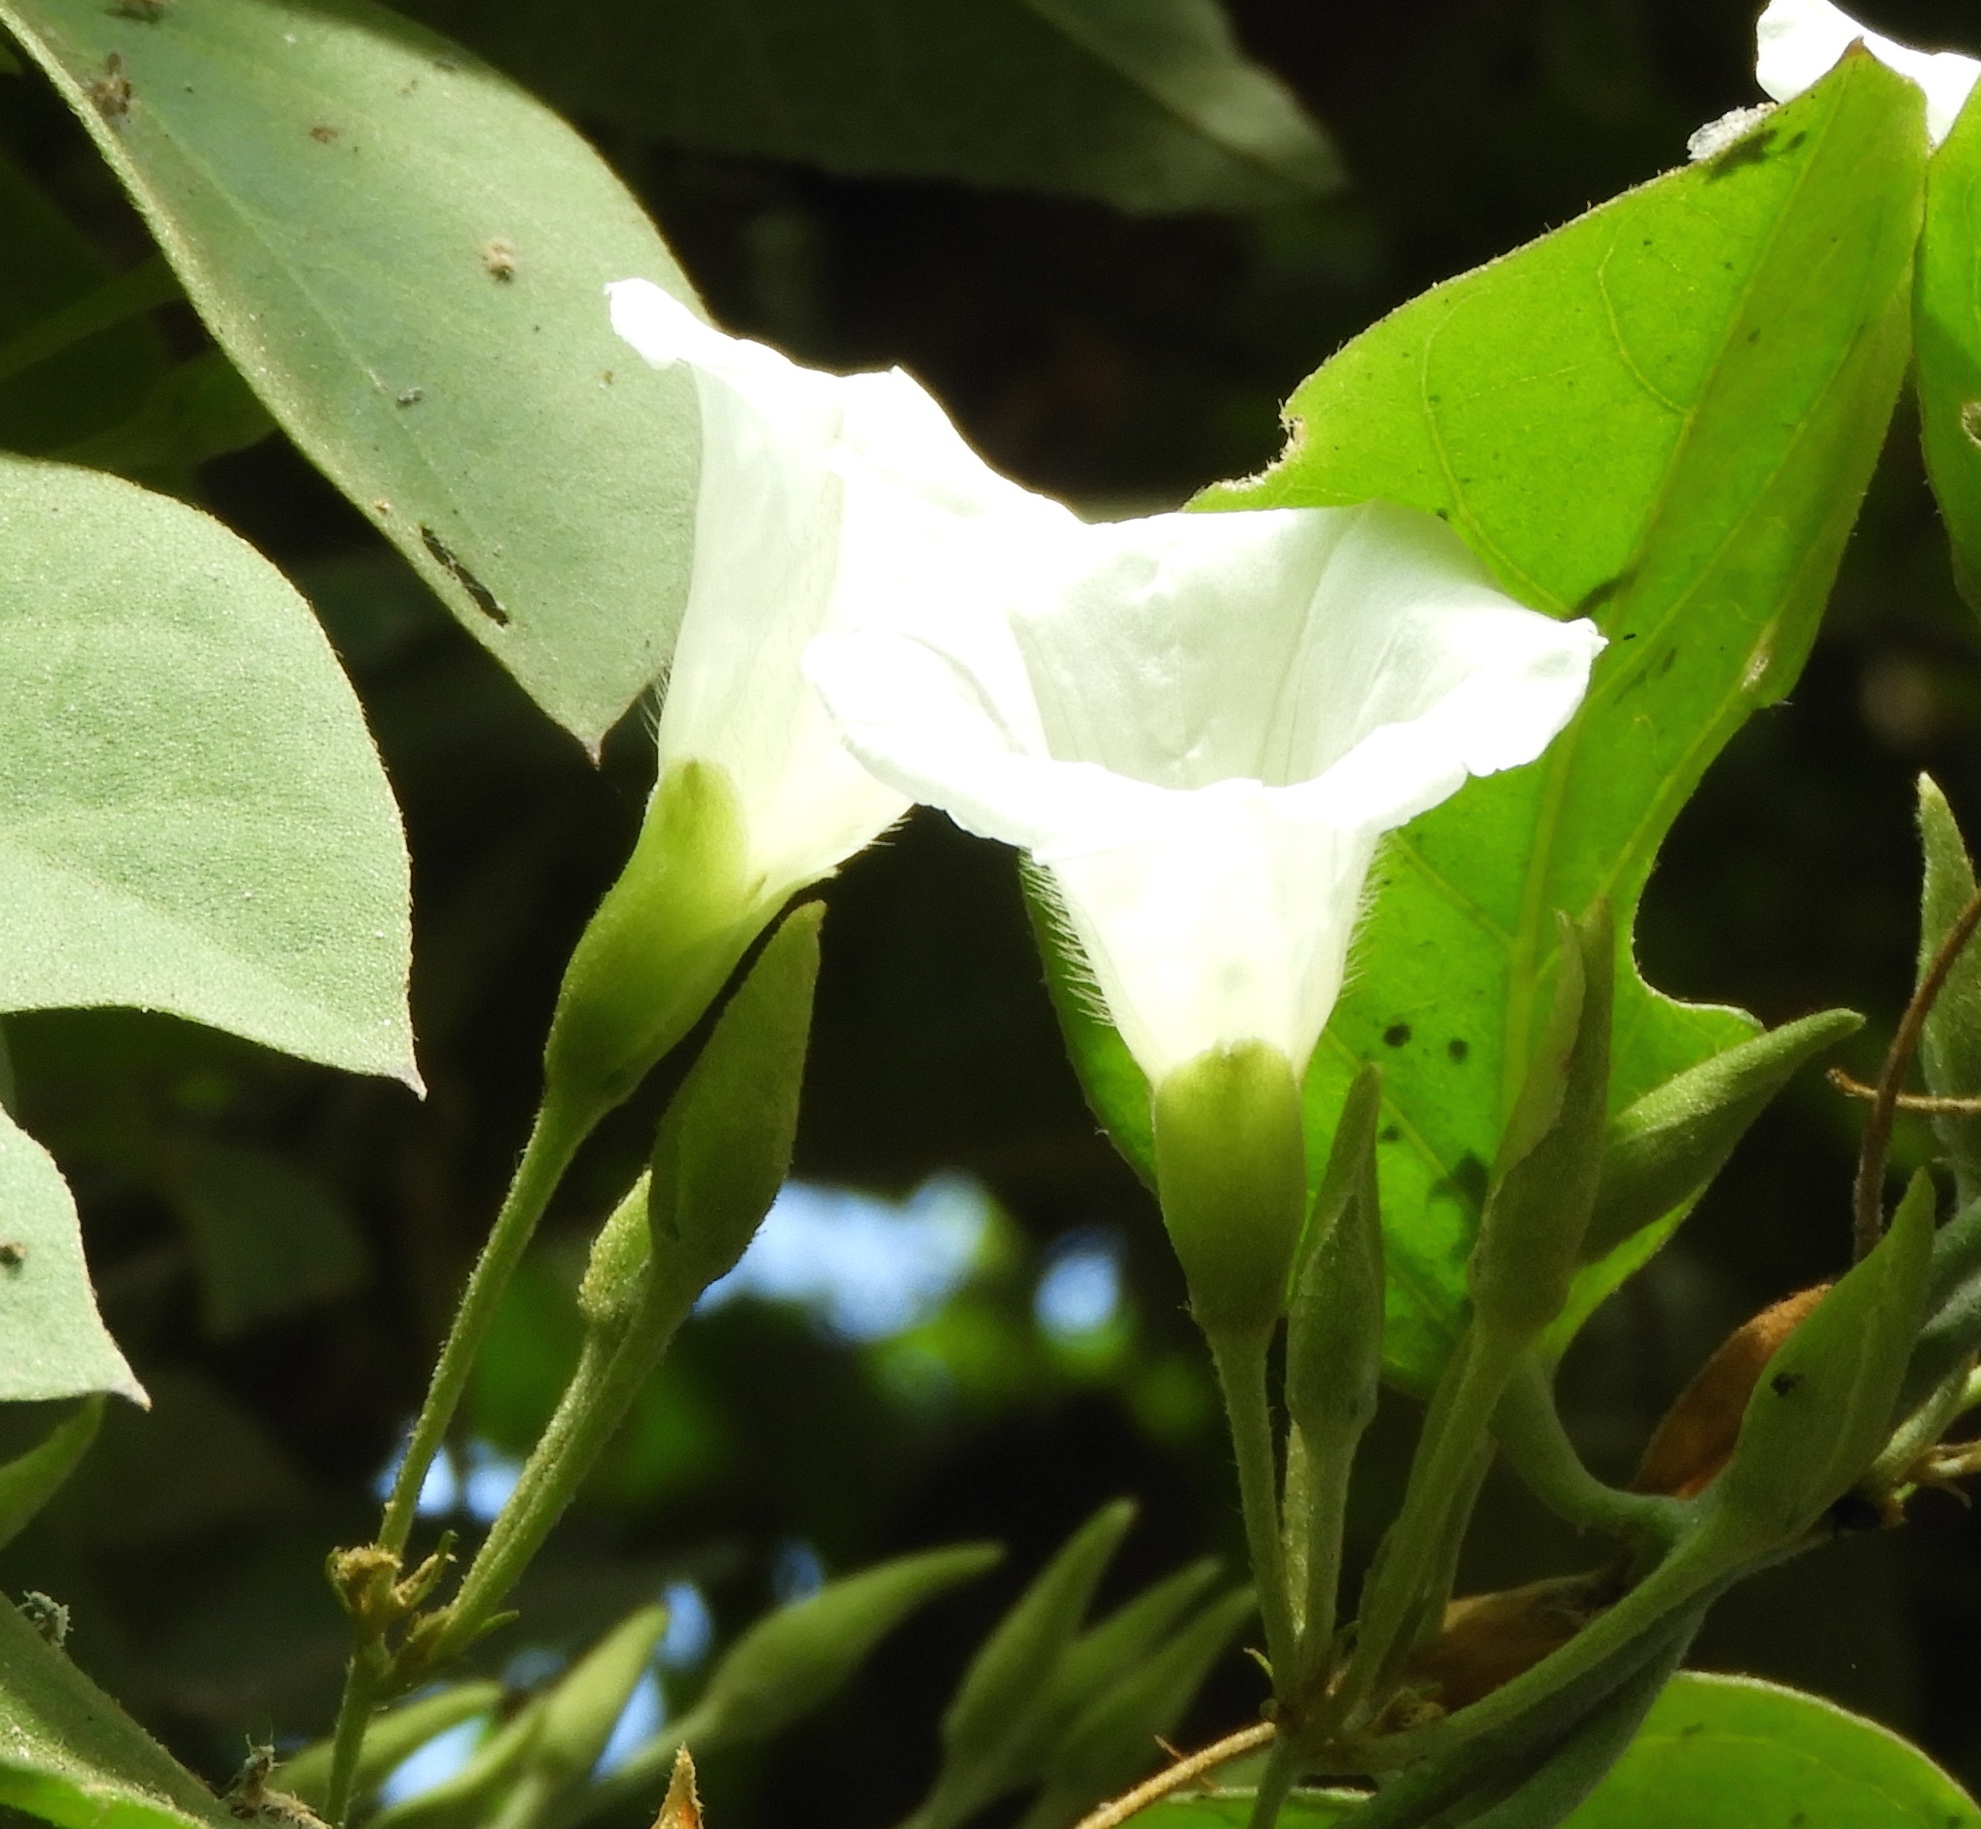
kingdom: Plantae
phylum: Tracheophyta
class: Magnoliopsida
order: Solanales
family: Convolvulaceae
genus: Bonamia
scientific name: Bonamia sulphurea
